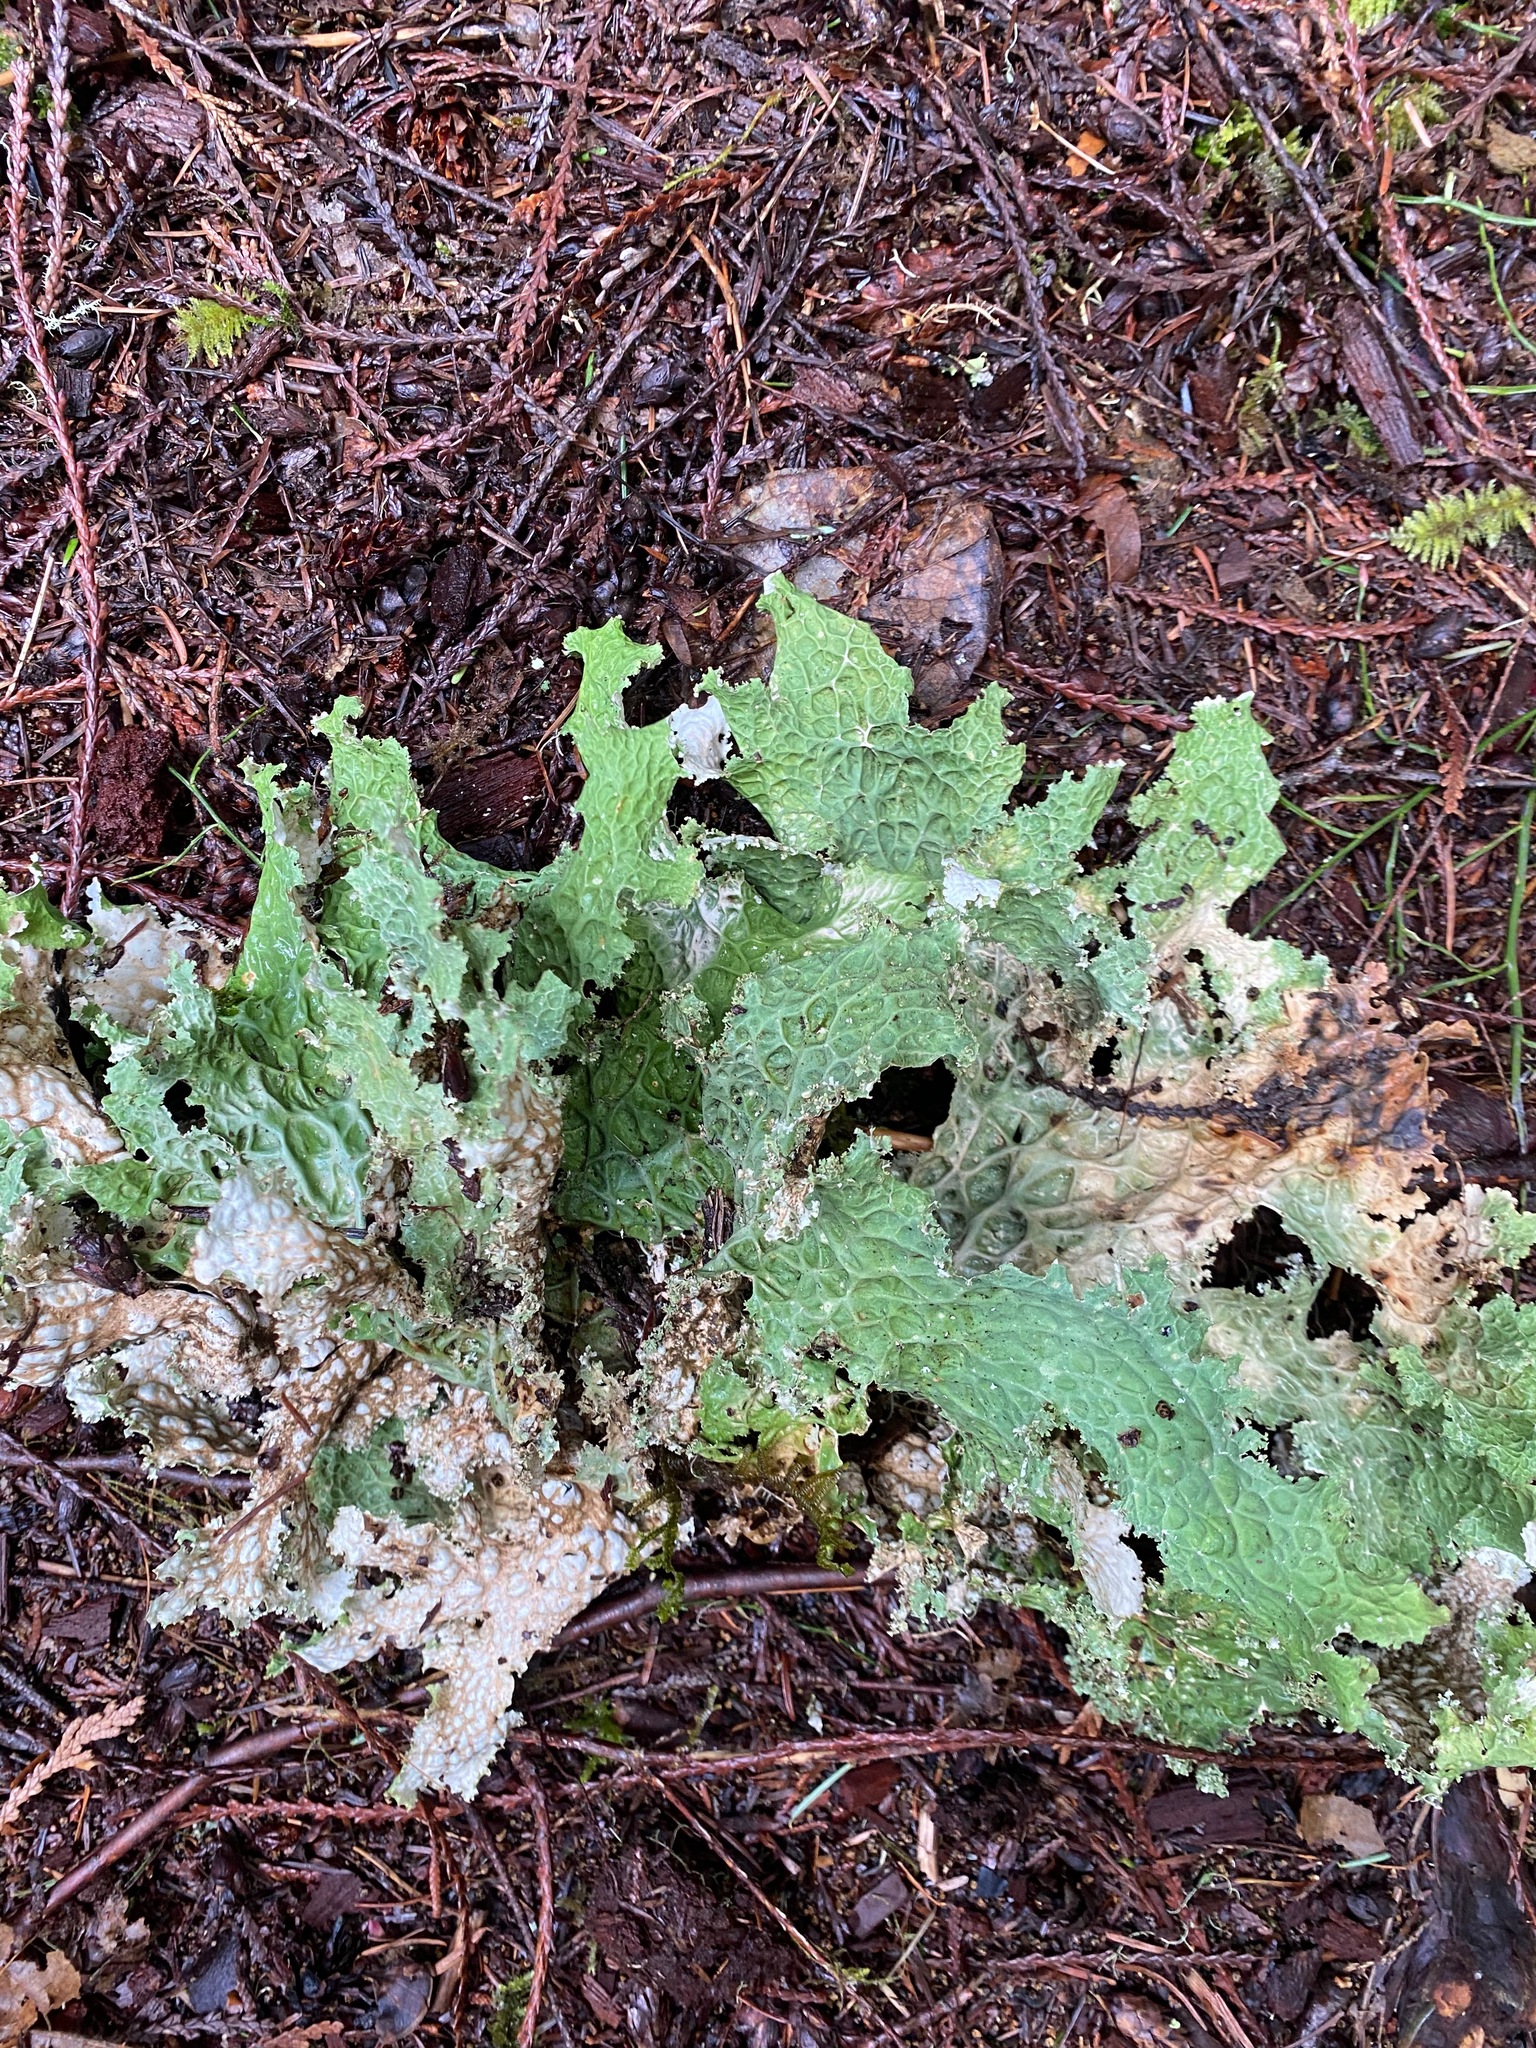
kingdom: Fungi
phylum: Ascomycota
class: Lecanoromycetes
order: Peltigerales
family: Lobariaceae
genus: Lobaria
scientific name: Lobaria oregana
